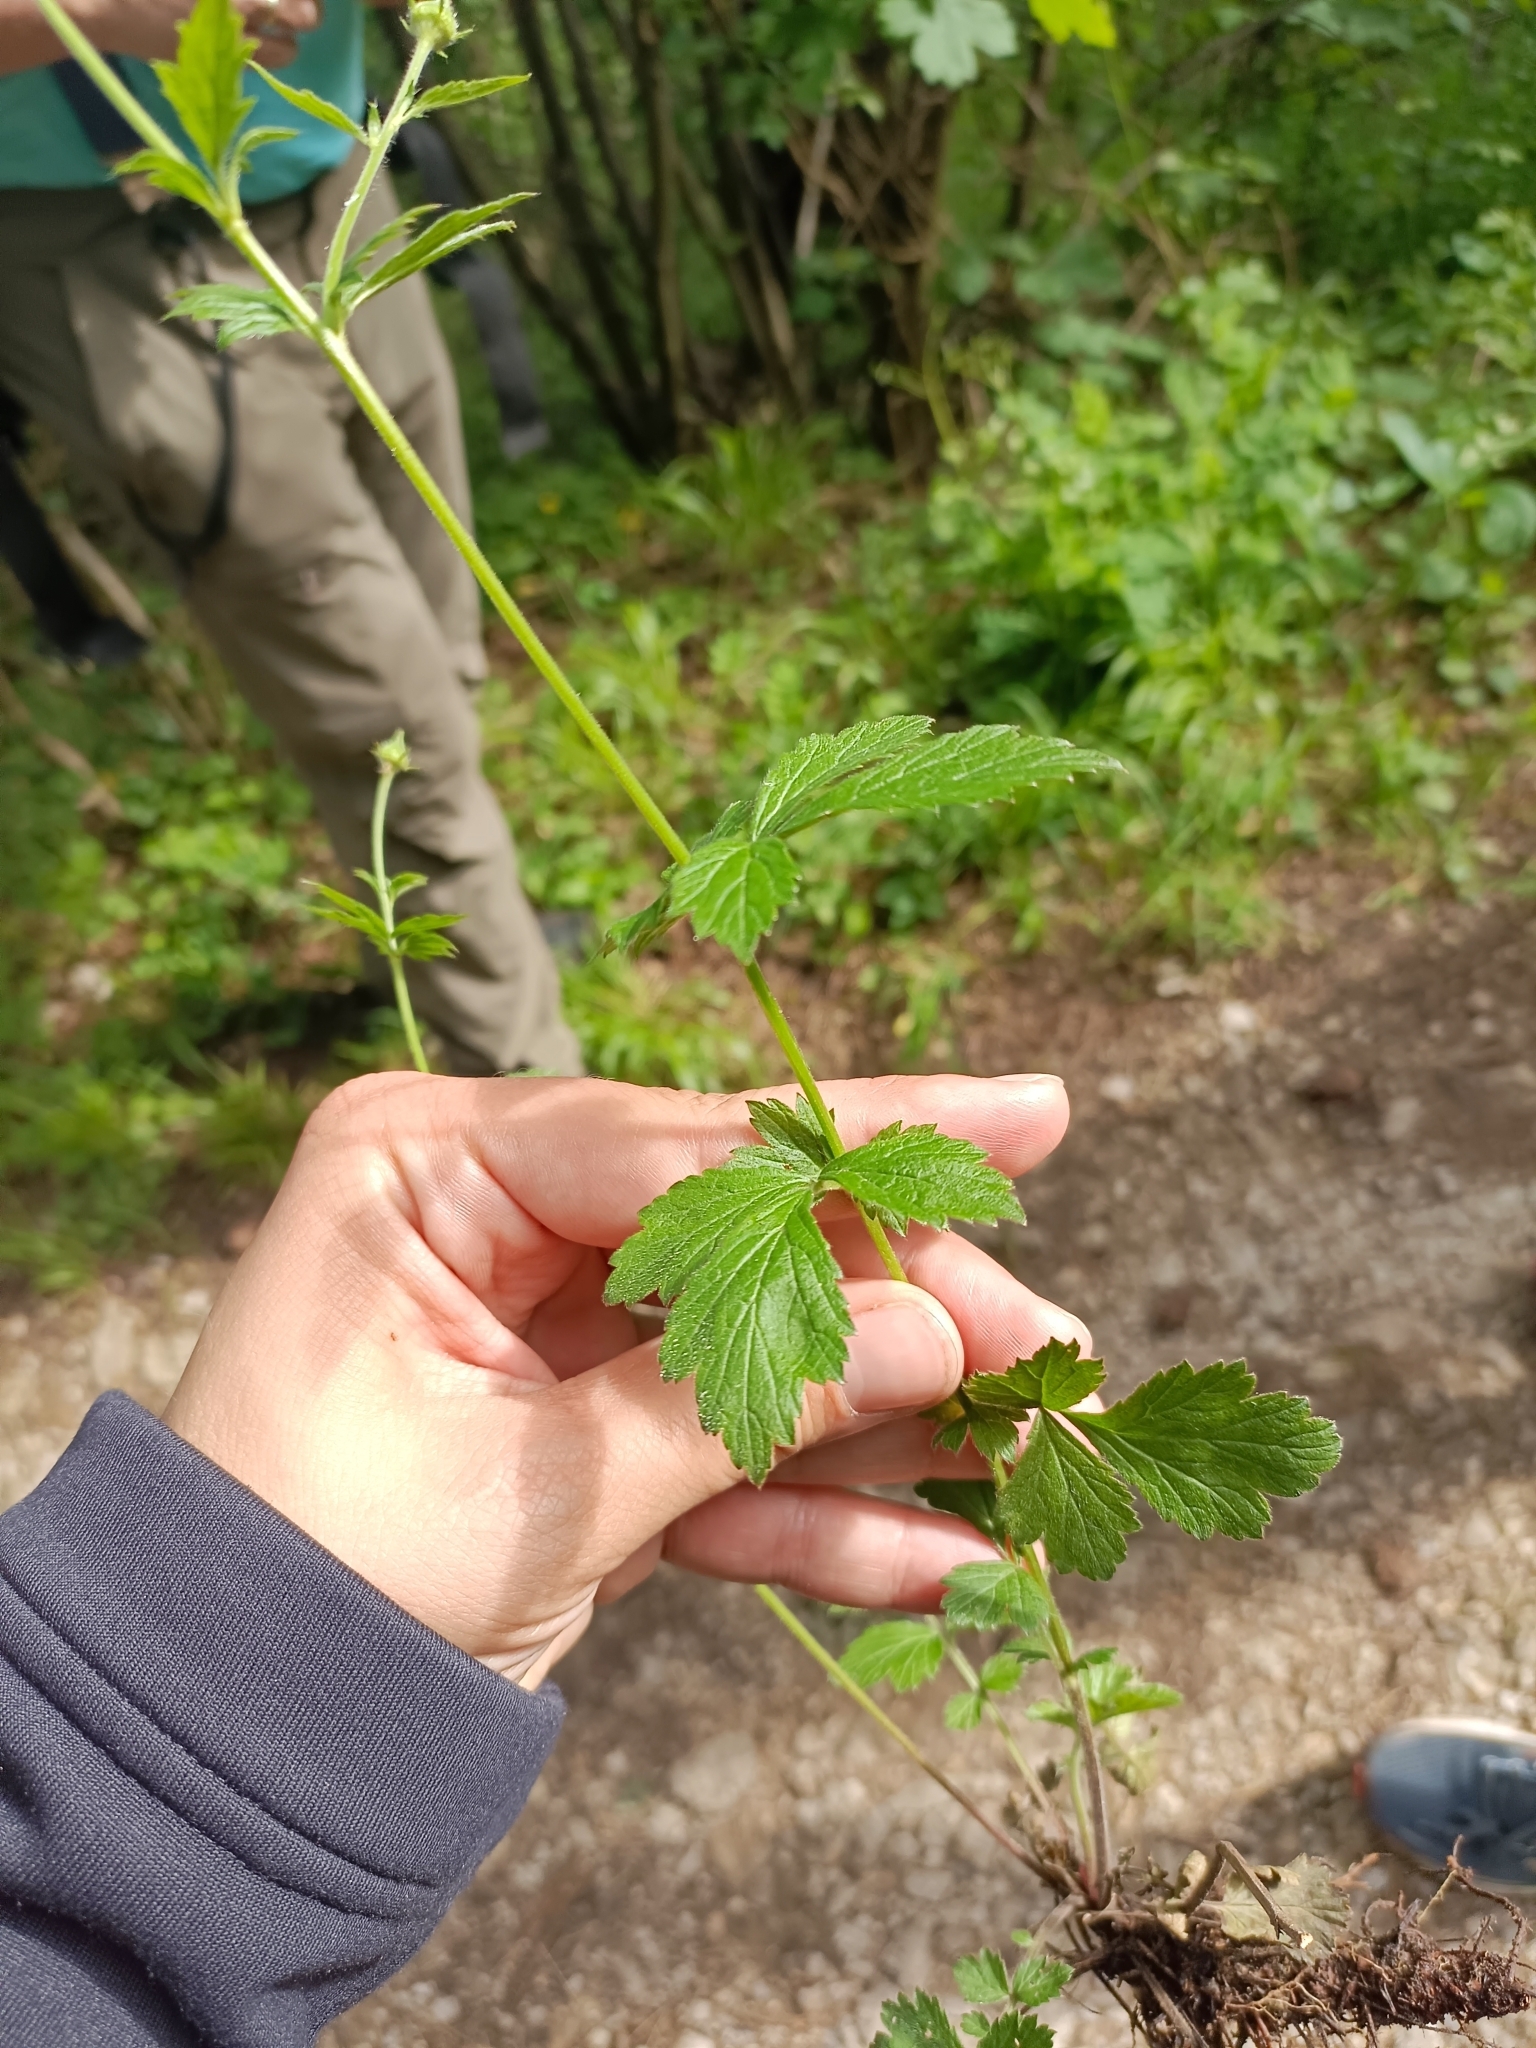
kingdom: Plantae
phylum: Tracheophyta
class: Magnoliopsida
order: Rosales
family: Rosaceae
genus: Geum
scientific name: Geum urbanum
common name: Wood avens
